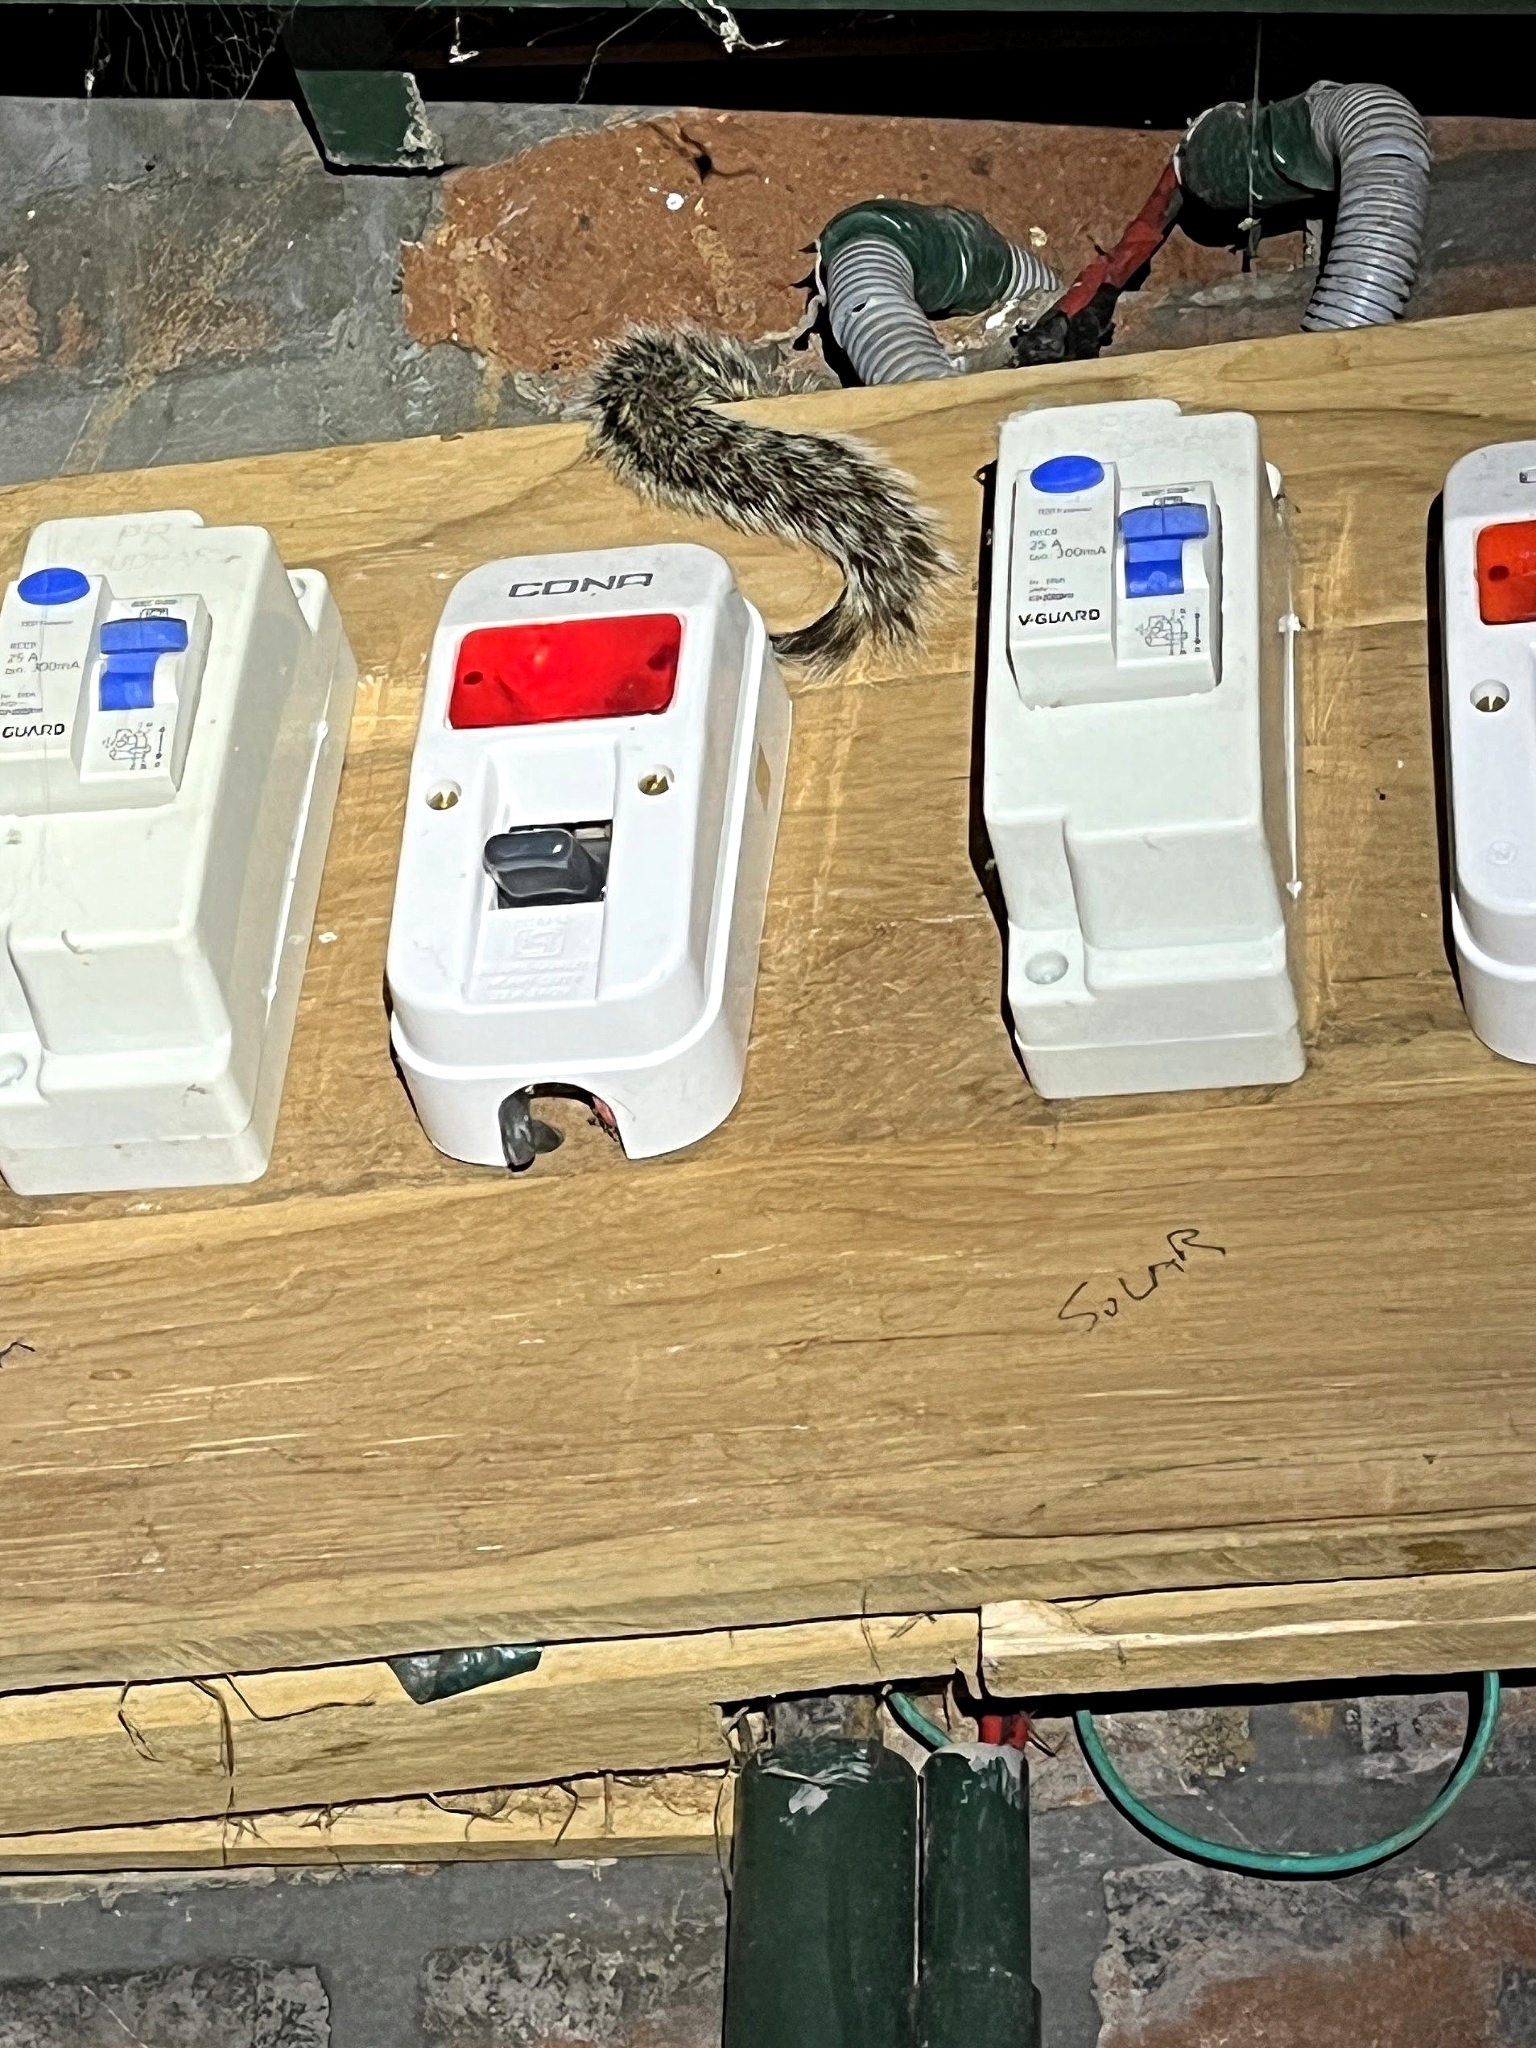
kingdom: Animalia
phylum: Chordata
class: Mammalia
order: Rodentia
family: Sciuridae
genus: Funambulus
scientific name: Funambulus palmarum
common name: Indian palm squirrel
